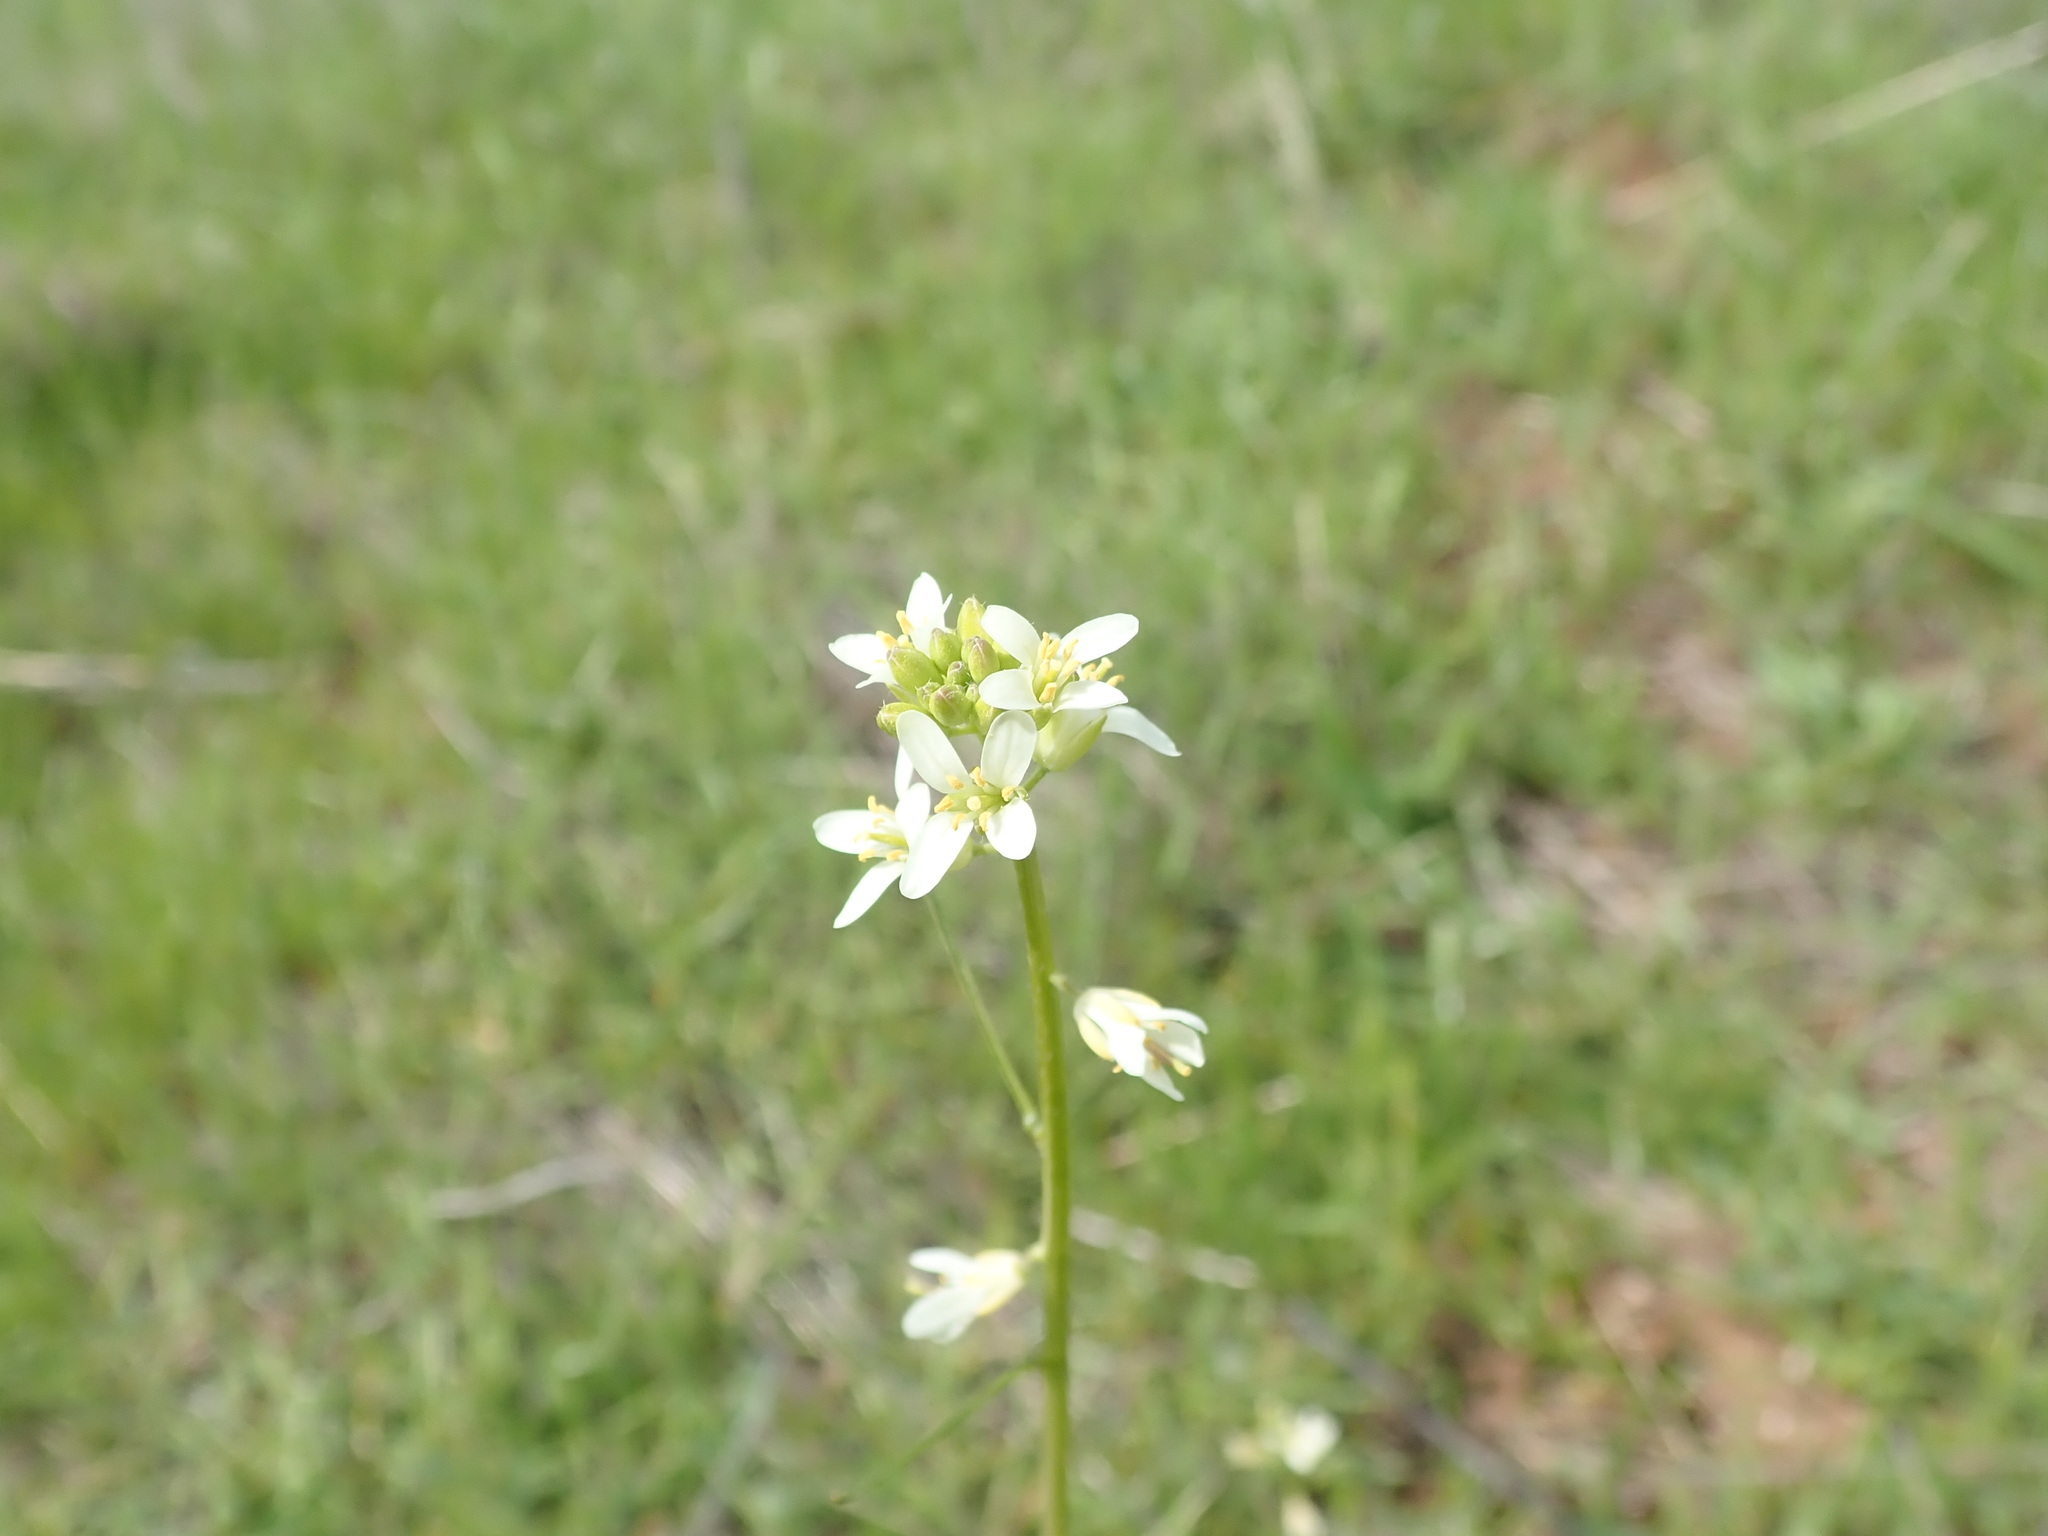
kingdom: Plantae
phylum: Tracheophyta
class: Magnoliopsida
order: Brassicales
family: Brassicaceae
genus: Streptanthus
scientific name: Streptanthus lasiophyllus
